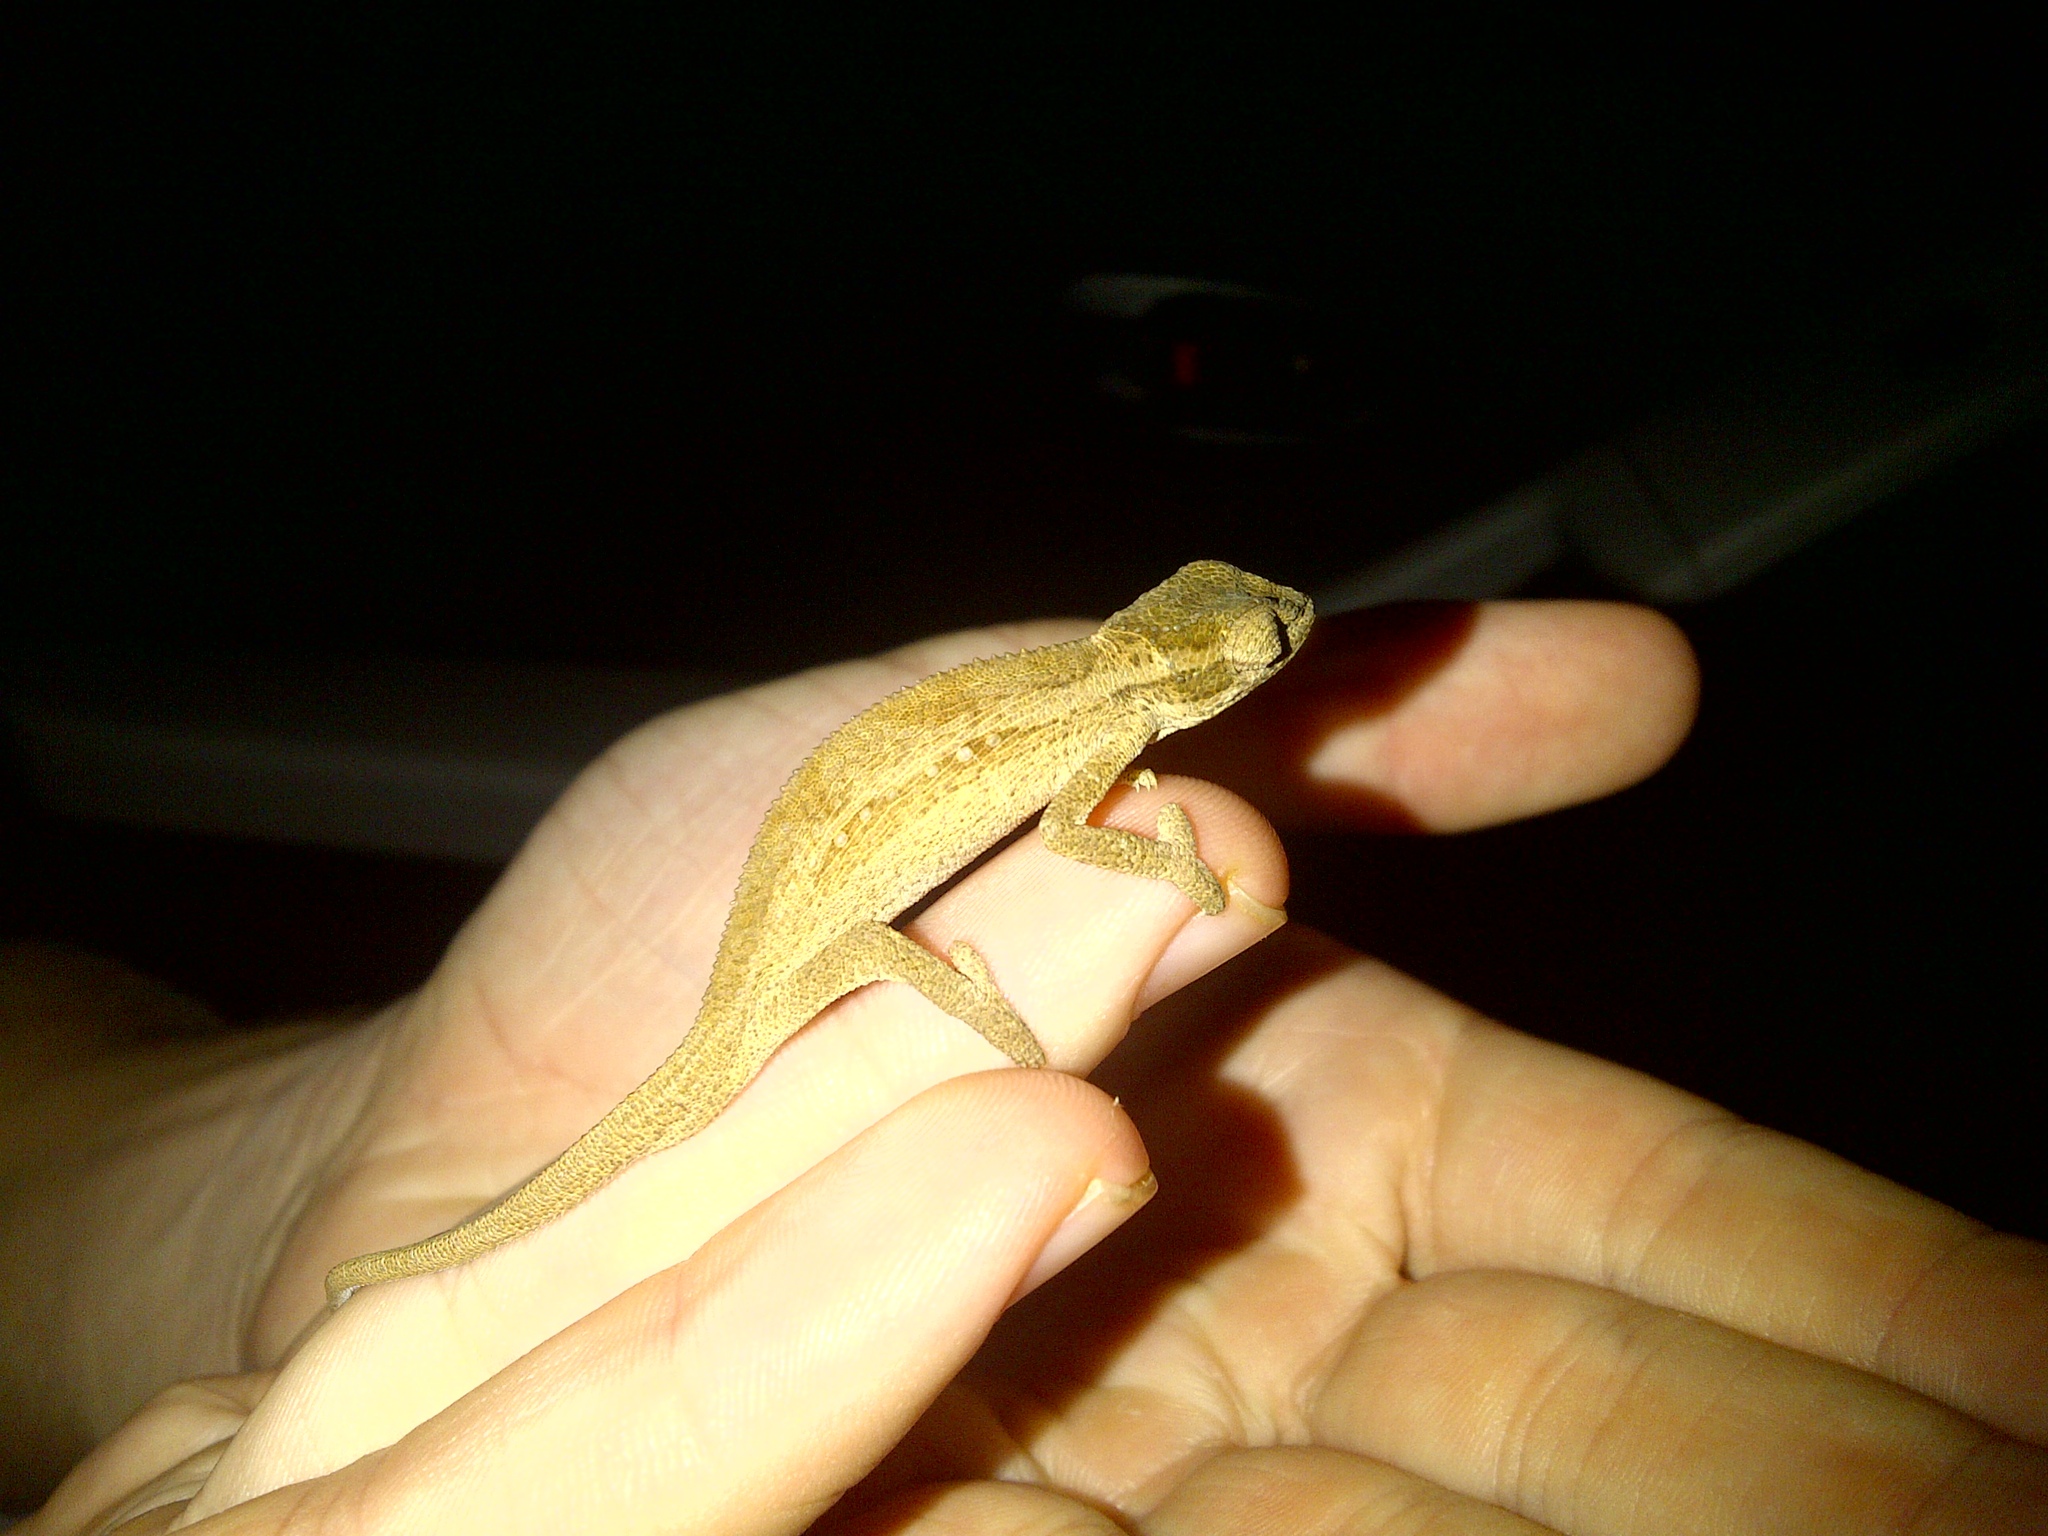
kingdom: Animalia
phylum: Chordata
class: Squamata
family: Chamaeleonidae
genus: Bradypodion
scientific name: Bradypodion melanocephalum
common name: Black-headed dwarf chameleon
